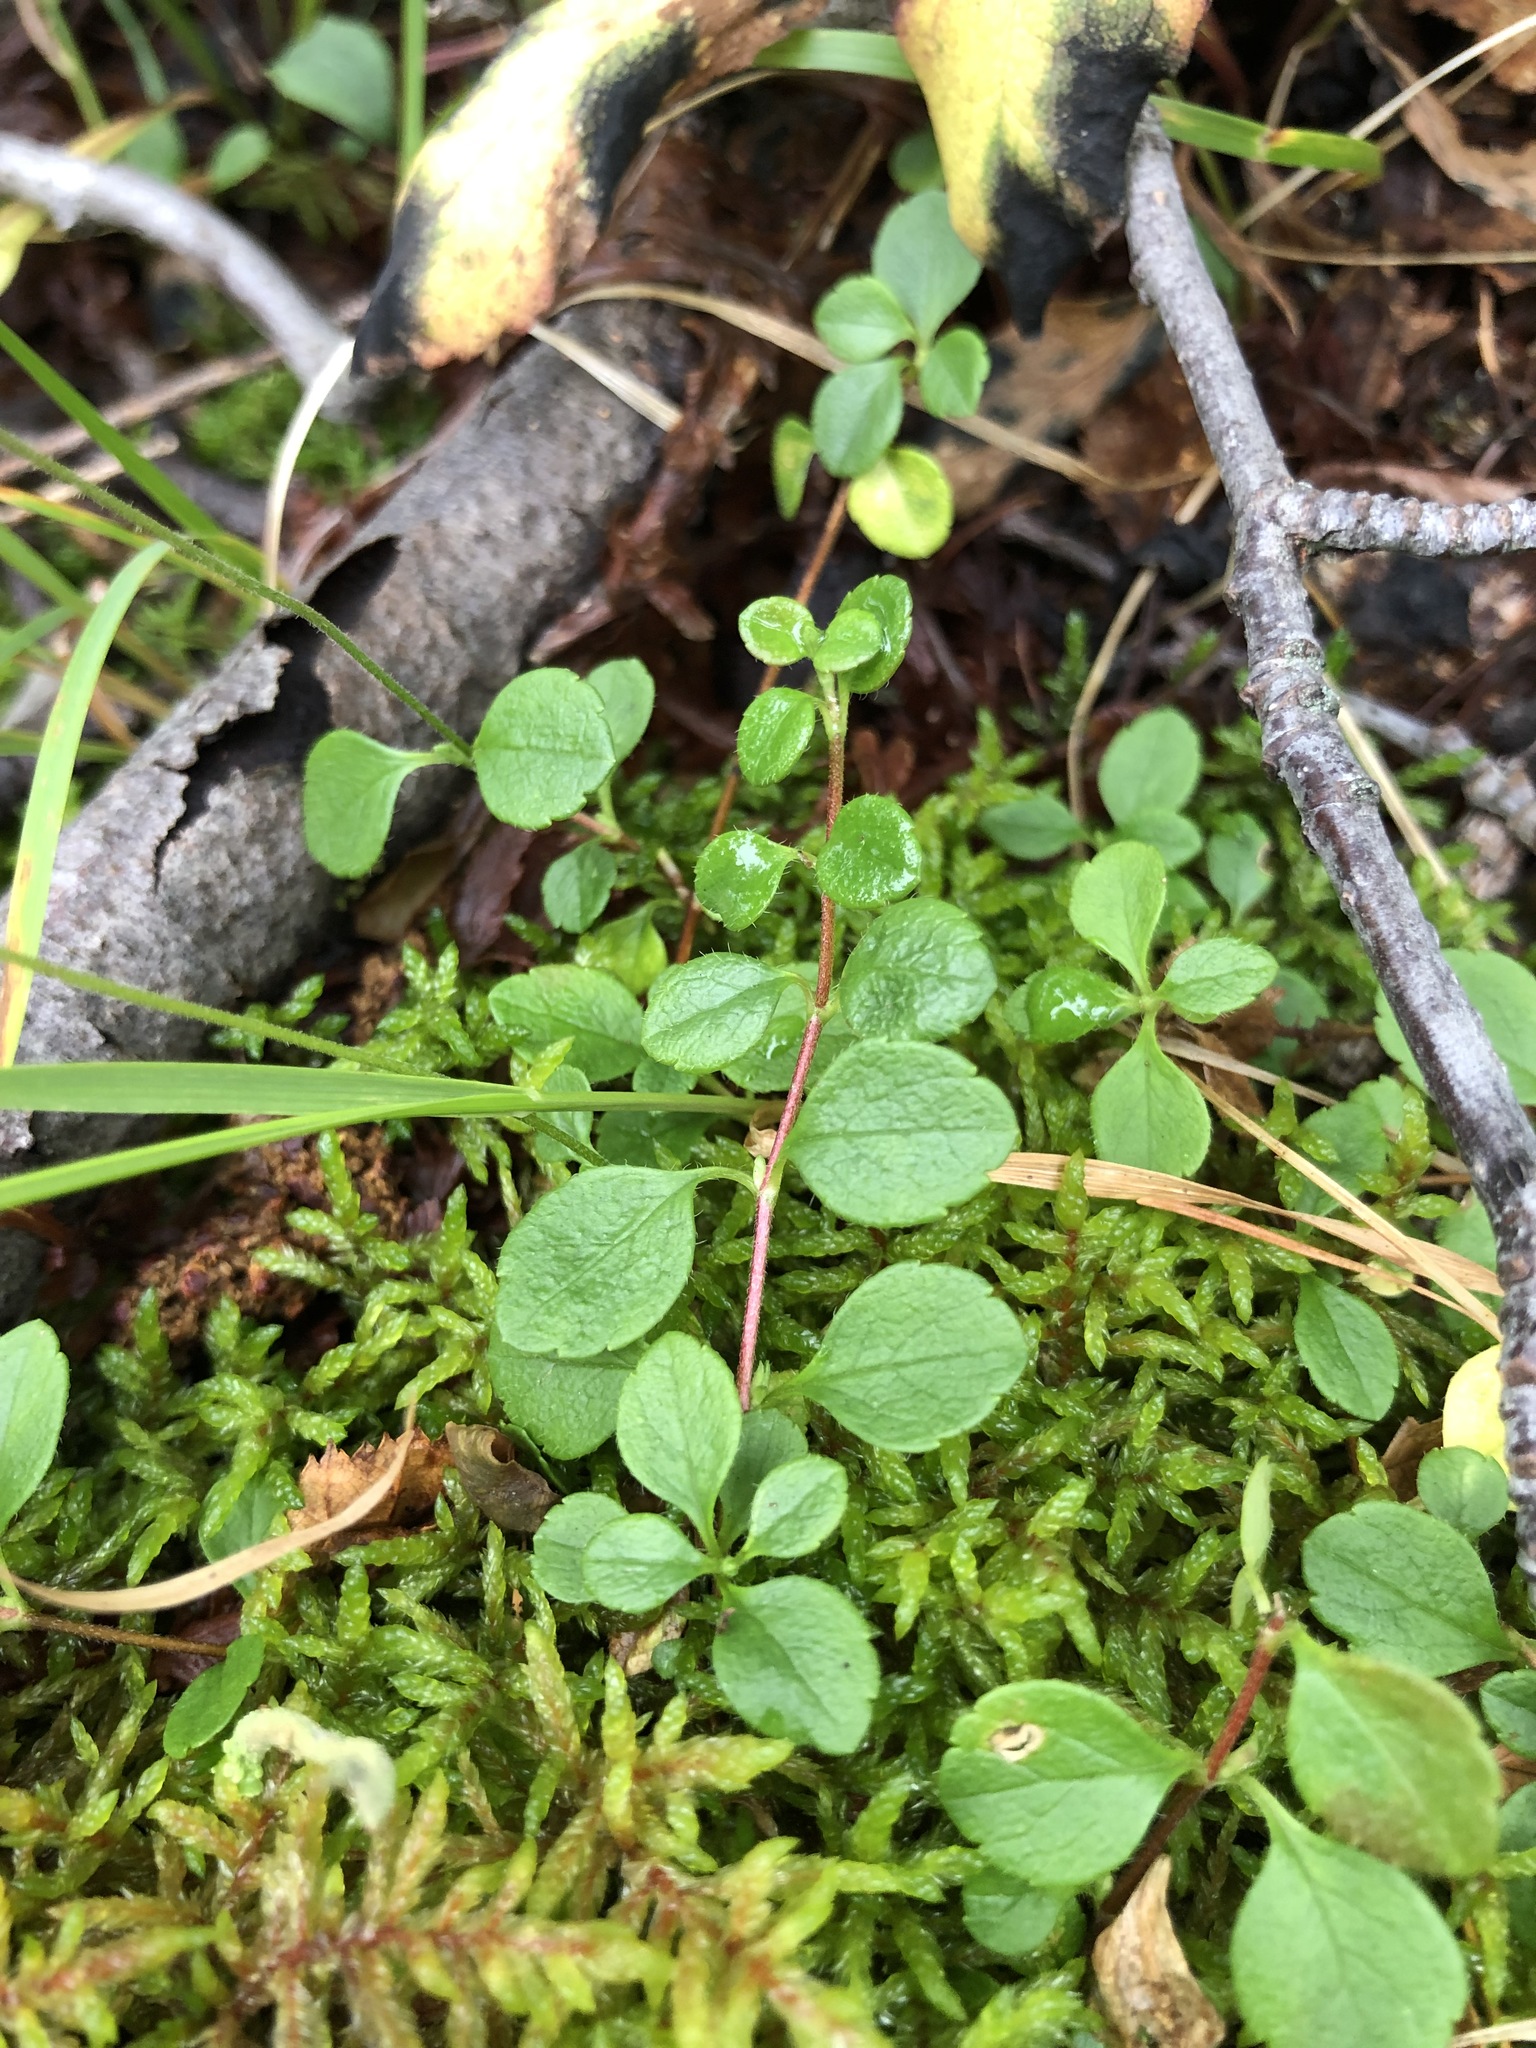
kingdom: Plantae
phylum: Tracheophyta
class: Magnoliopsida
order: Dipsacales
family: Caprifoliaceae
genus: Linnaea
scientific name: Linnaea borealis
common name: Twinflower
